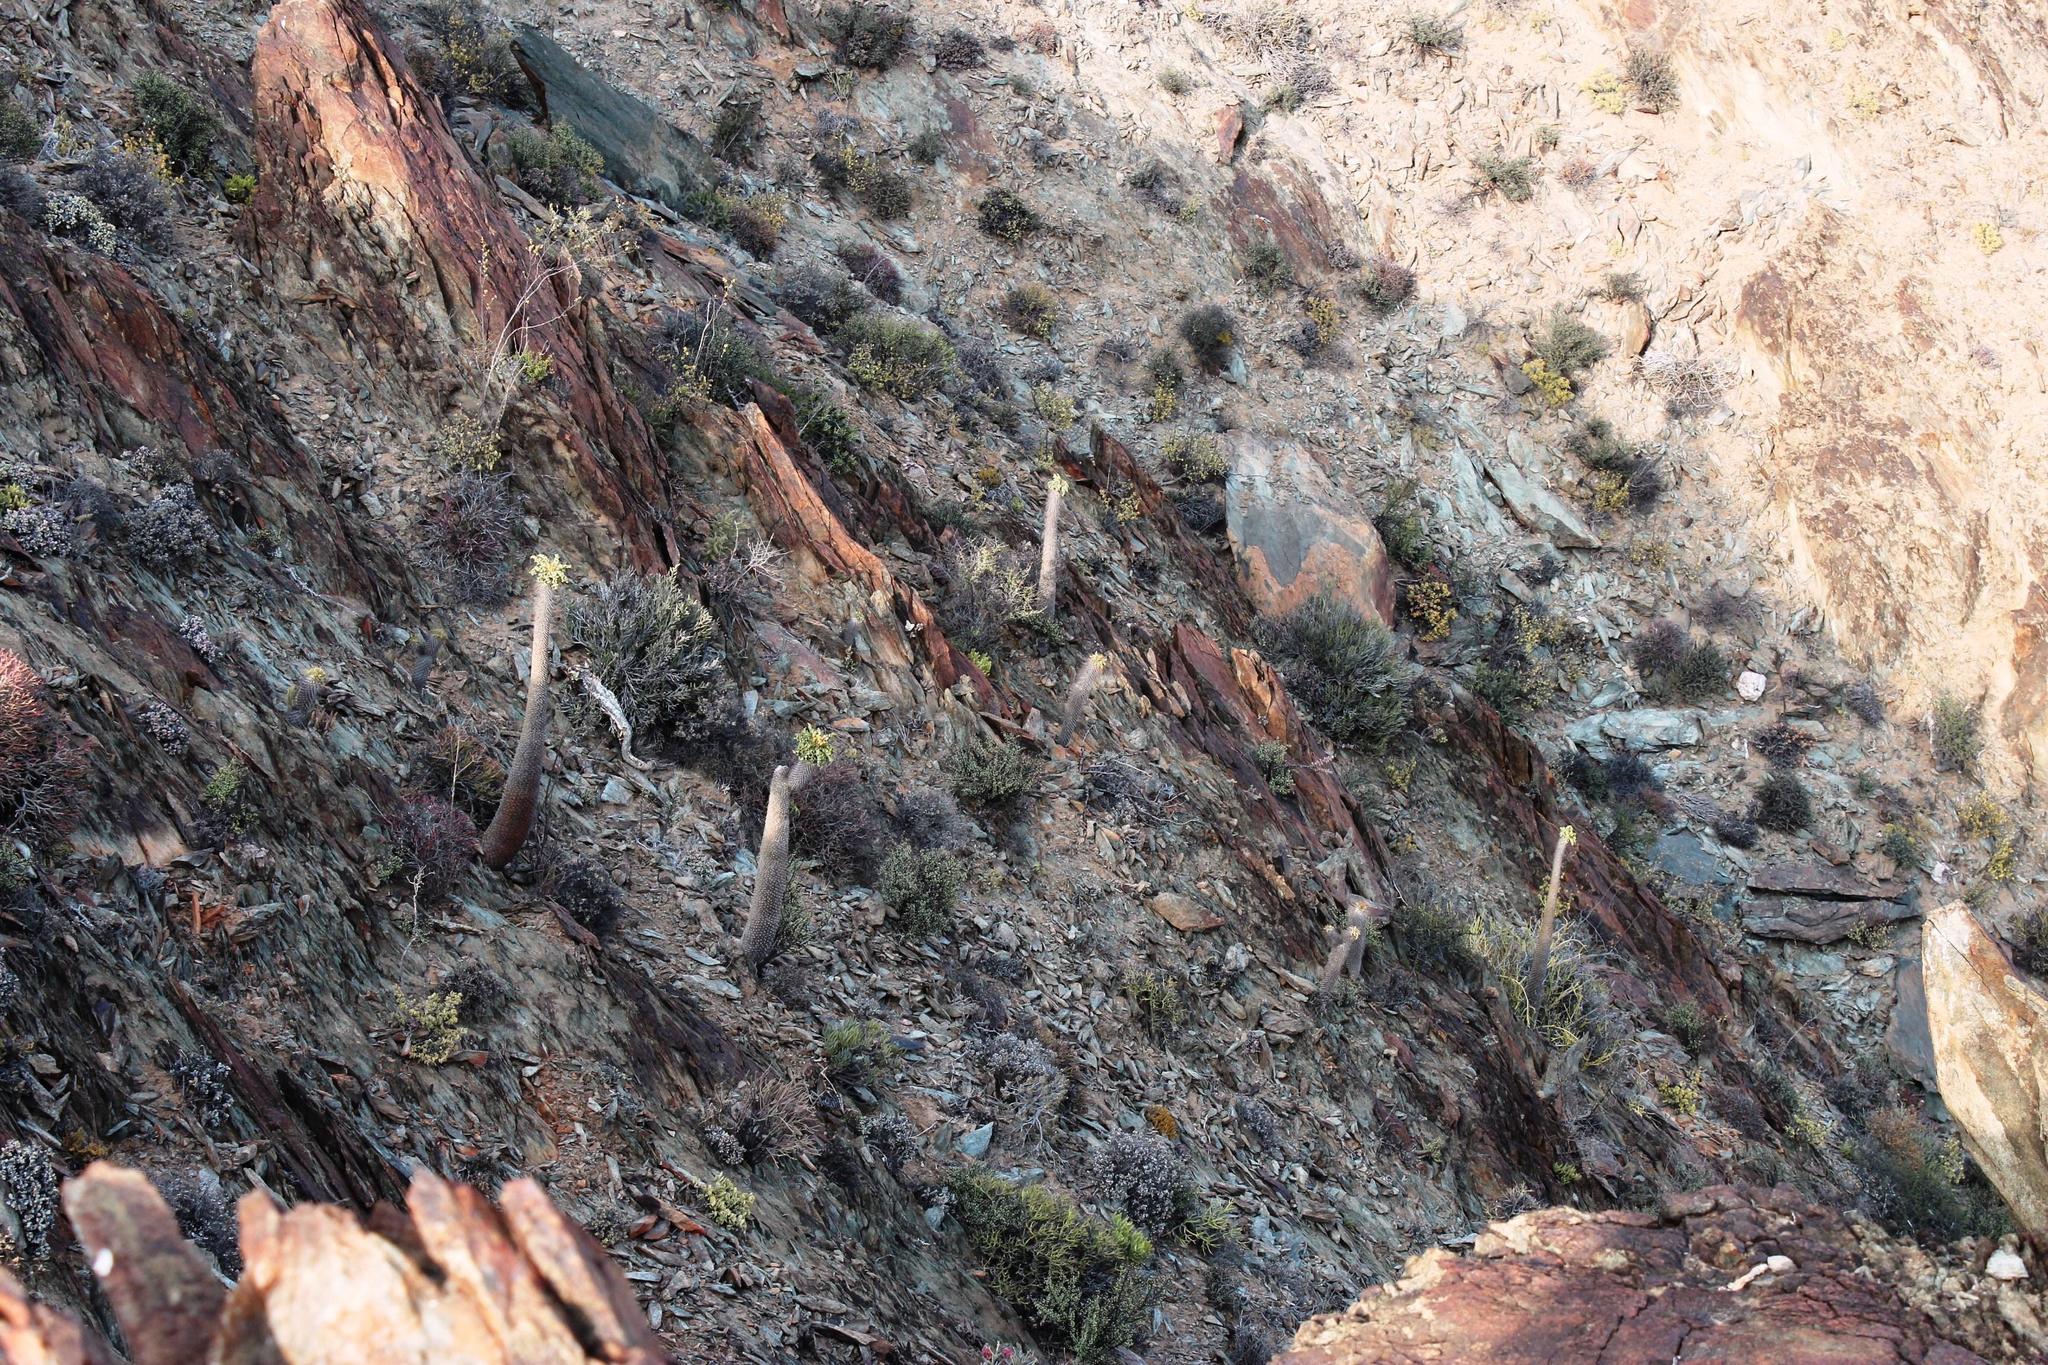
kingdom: Plantae
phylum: Tracheophyta
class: Magnoliopsida
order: Gentianales
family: Apocynaceae
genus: Pachypodium
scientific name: Pachypodium namaquanum
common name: Elephant's trunk
